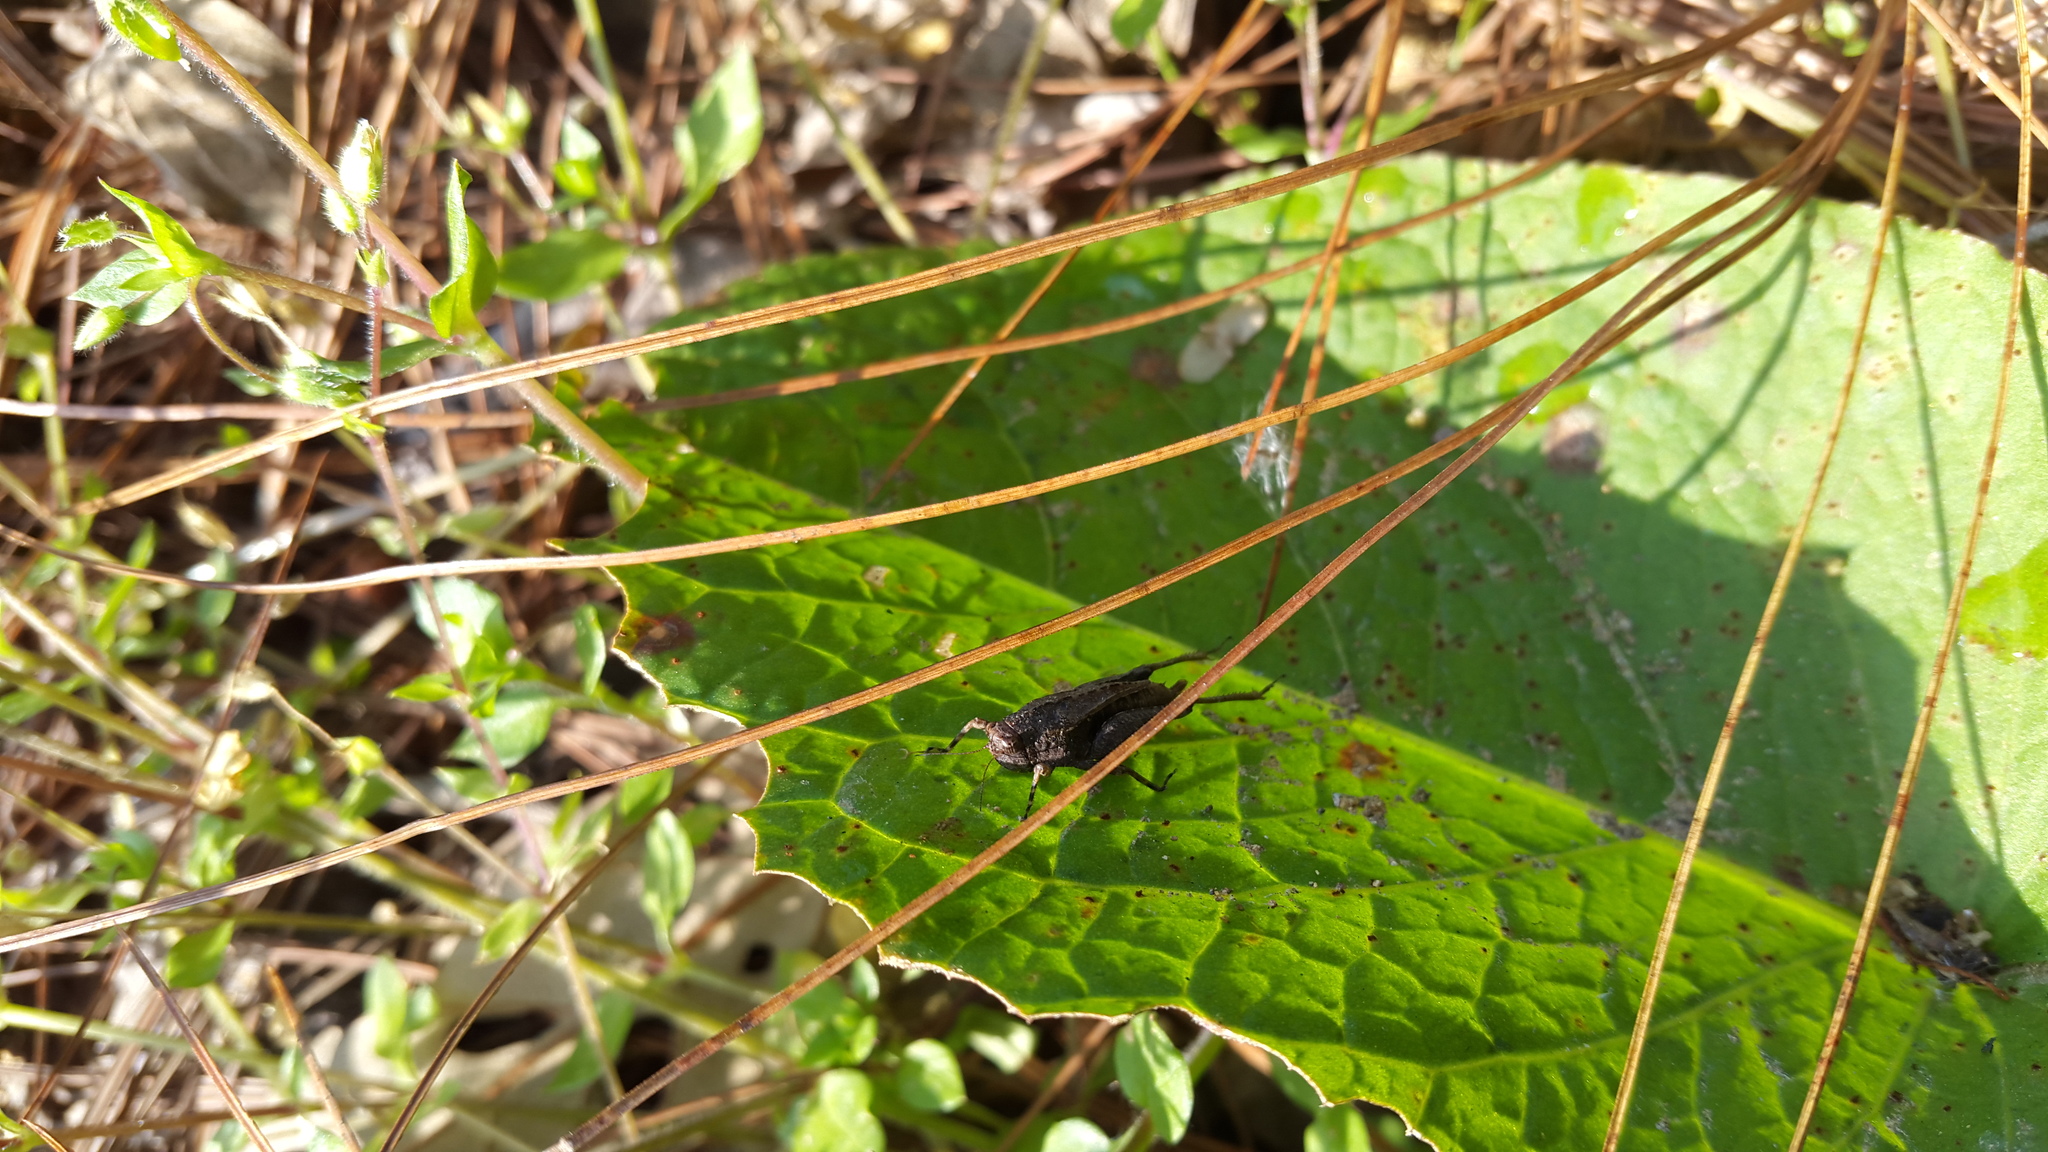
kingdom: Animalia
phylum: Arthropoda
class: Insecta
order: Orthoptera
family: Tetrigidae
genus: Tettigidea
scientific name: Tettigidea laterale
